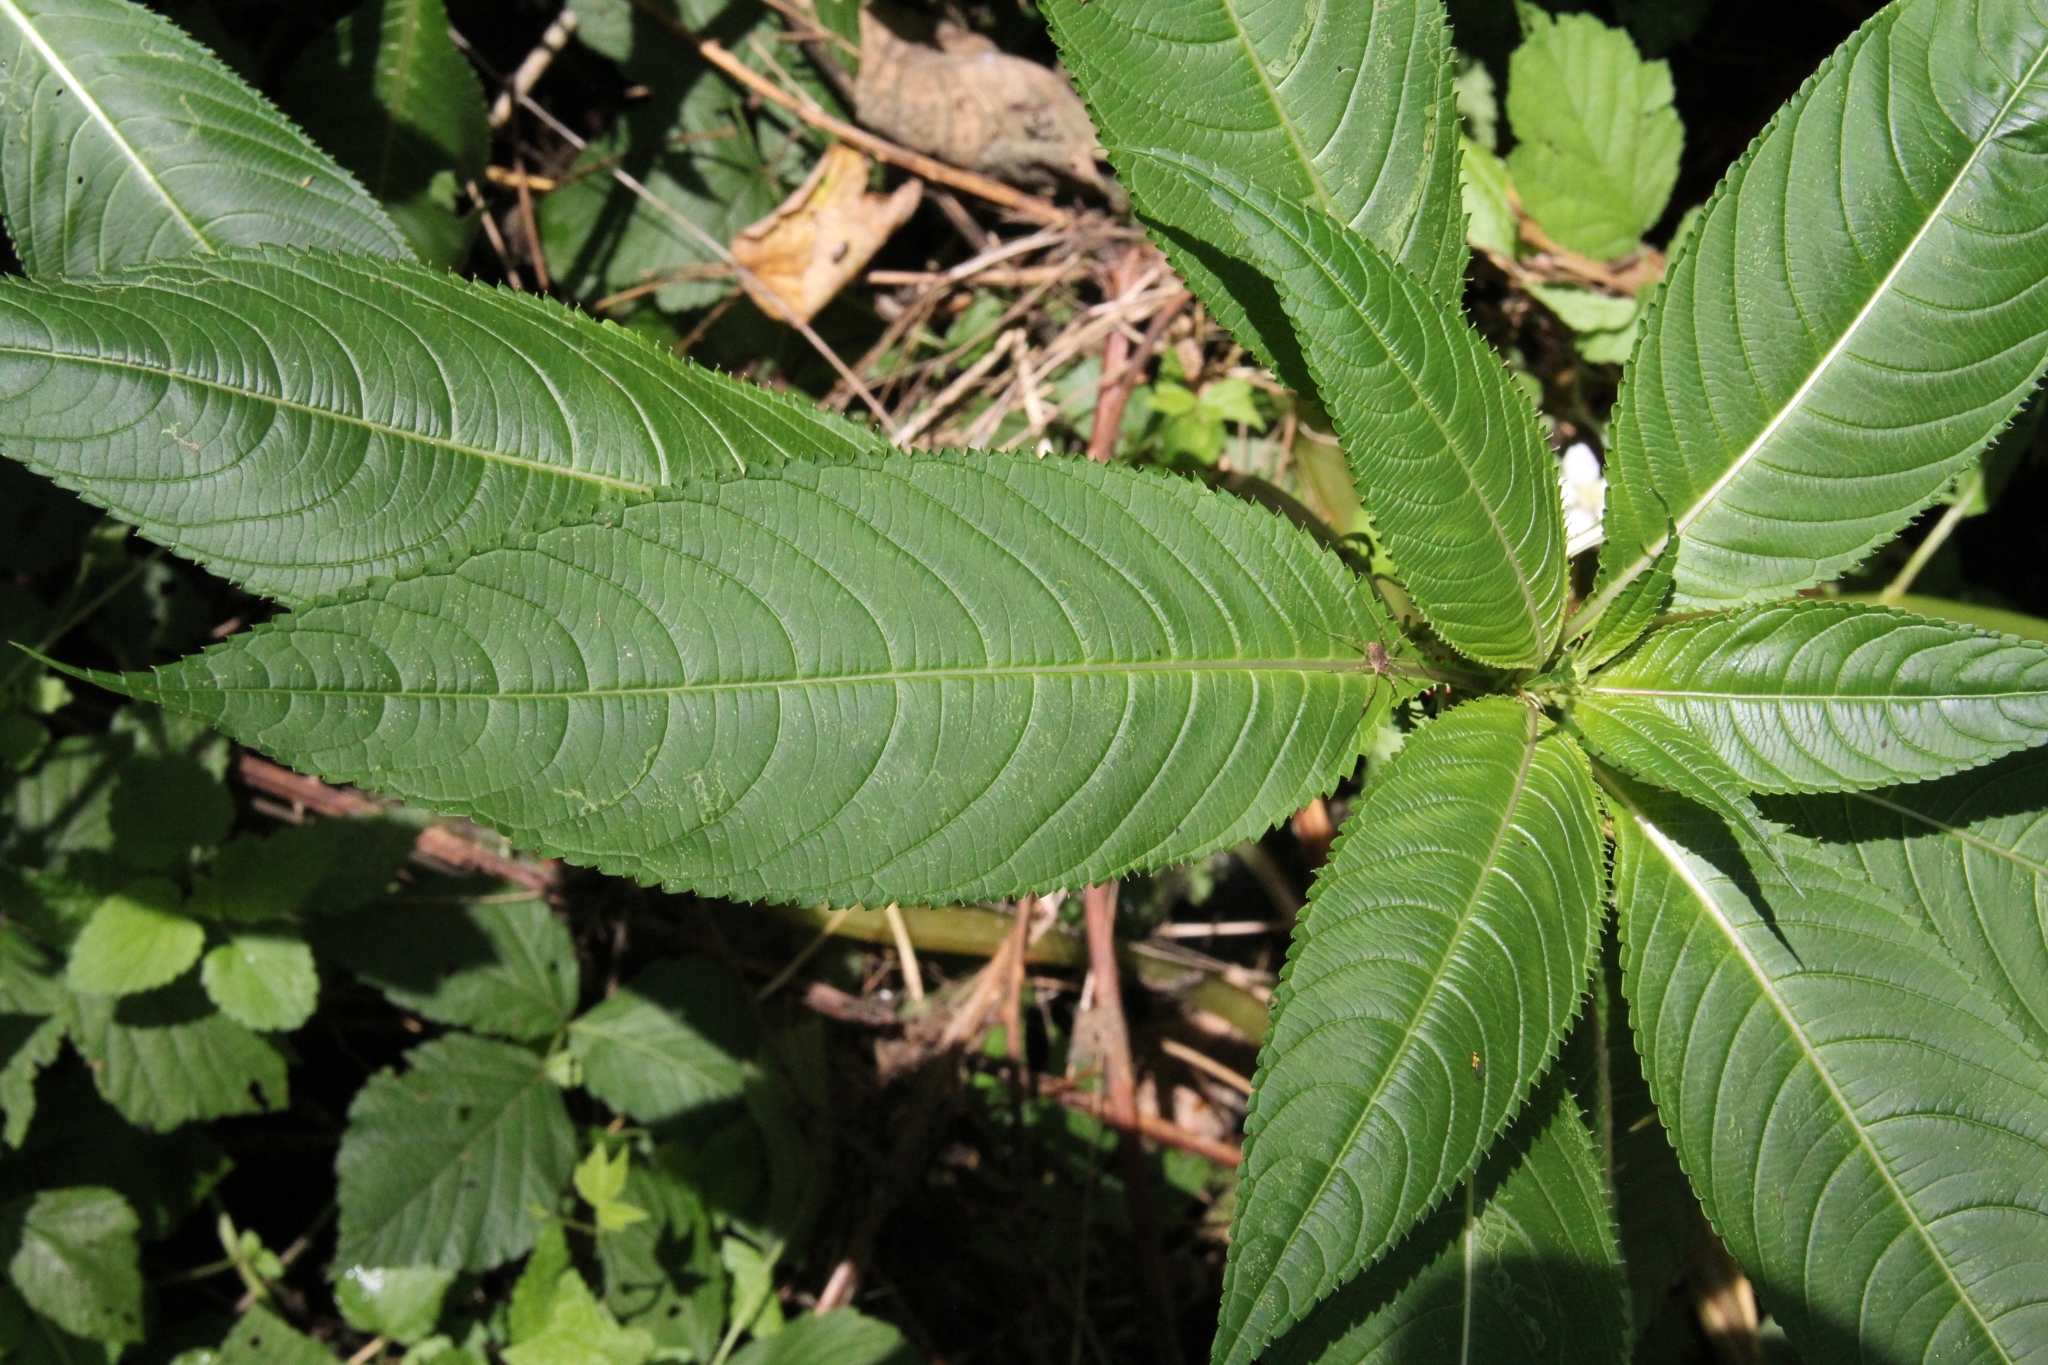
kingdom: Plantae
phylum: Tracheophyta
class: Magnoliopsida
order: Ericales
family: Balsaminaceae
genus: Impatiens
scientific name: Impatiens glandulifera
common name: Himalayan balsam
